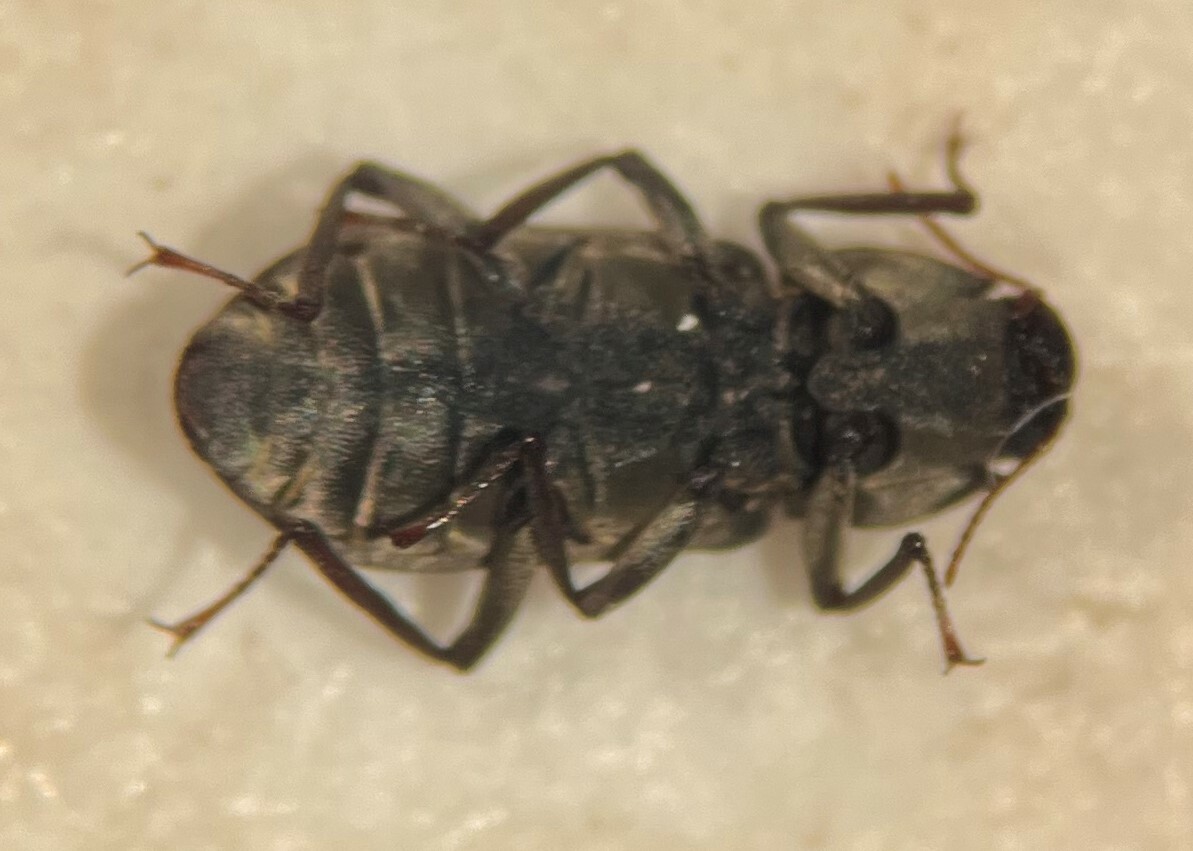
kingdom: Animalia
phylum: Arthropoda
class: Insecta
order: Coleoptera
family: Elmidae
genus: Macrelmis
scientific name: Macrelmis texana
